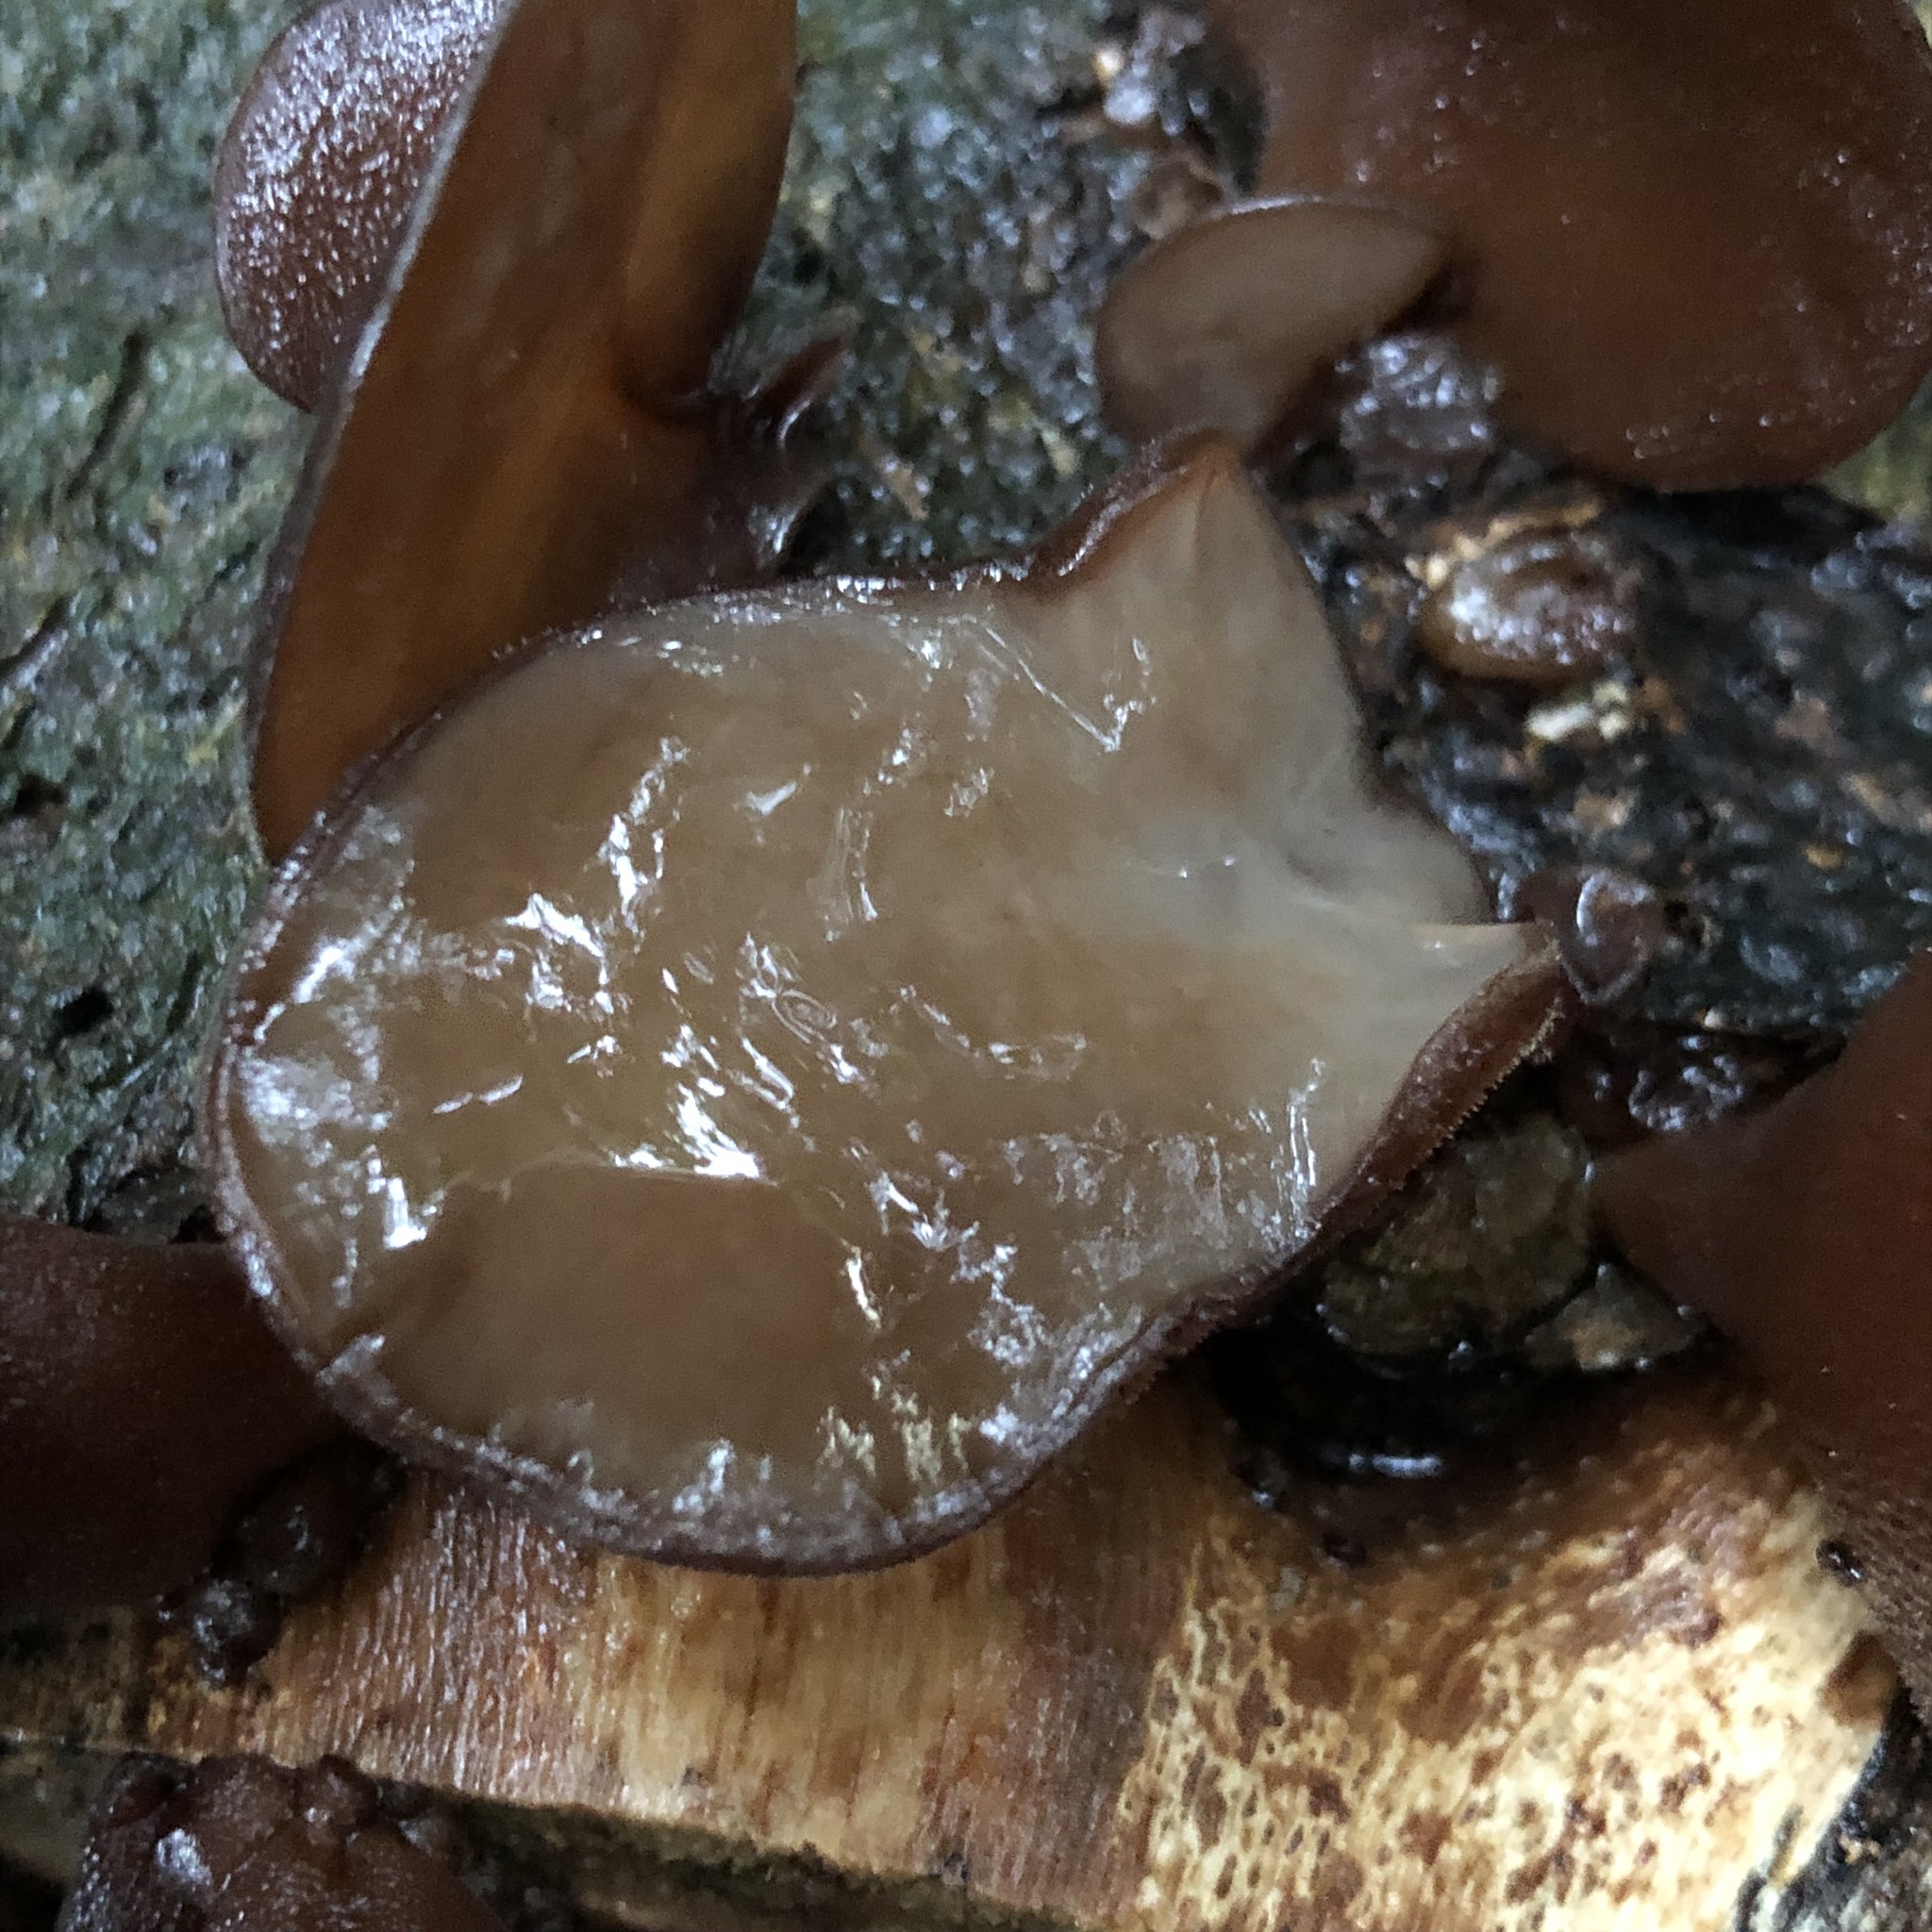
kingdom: Fungi
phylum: Basidiomycota
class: Agaricomycetes
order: Auriculariales
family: Auriculariaceae
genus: Auricularia
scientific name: Auricularia cornea
